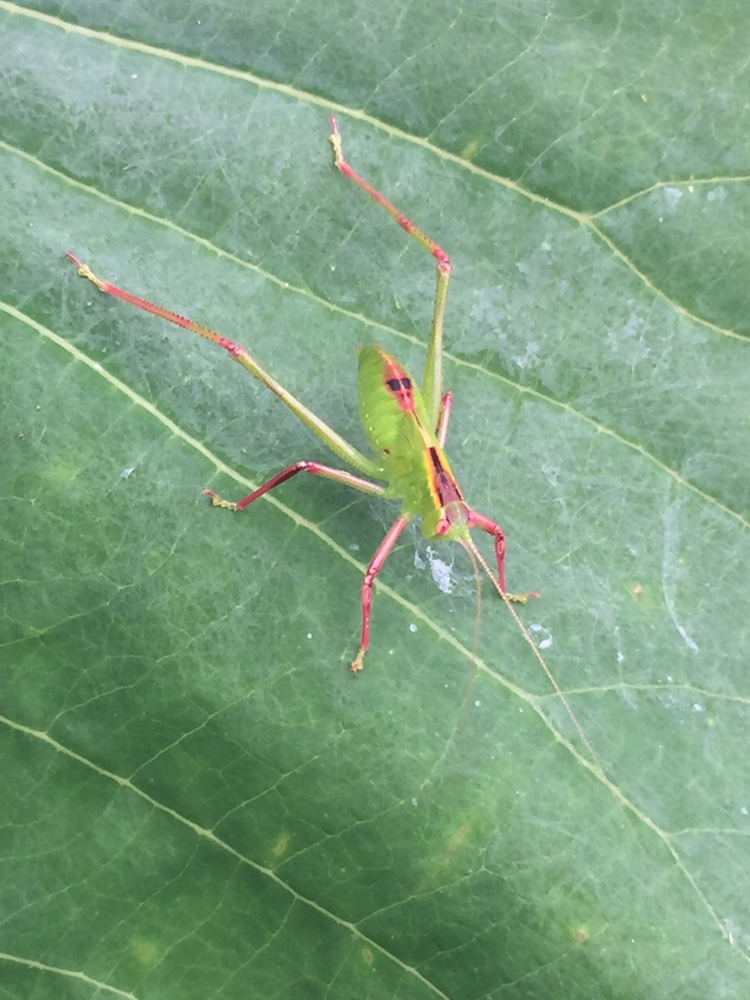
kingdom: Animalia
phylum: Arthropoda
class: Insecta
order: Orthoptera
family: Tettigoniidae
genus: Caedicia
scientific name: Caedicia simplex
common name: Common garden katydid
